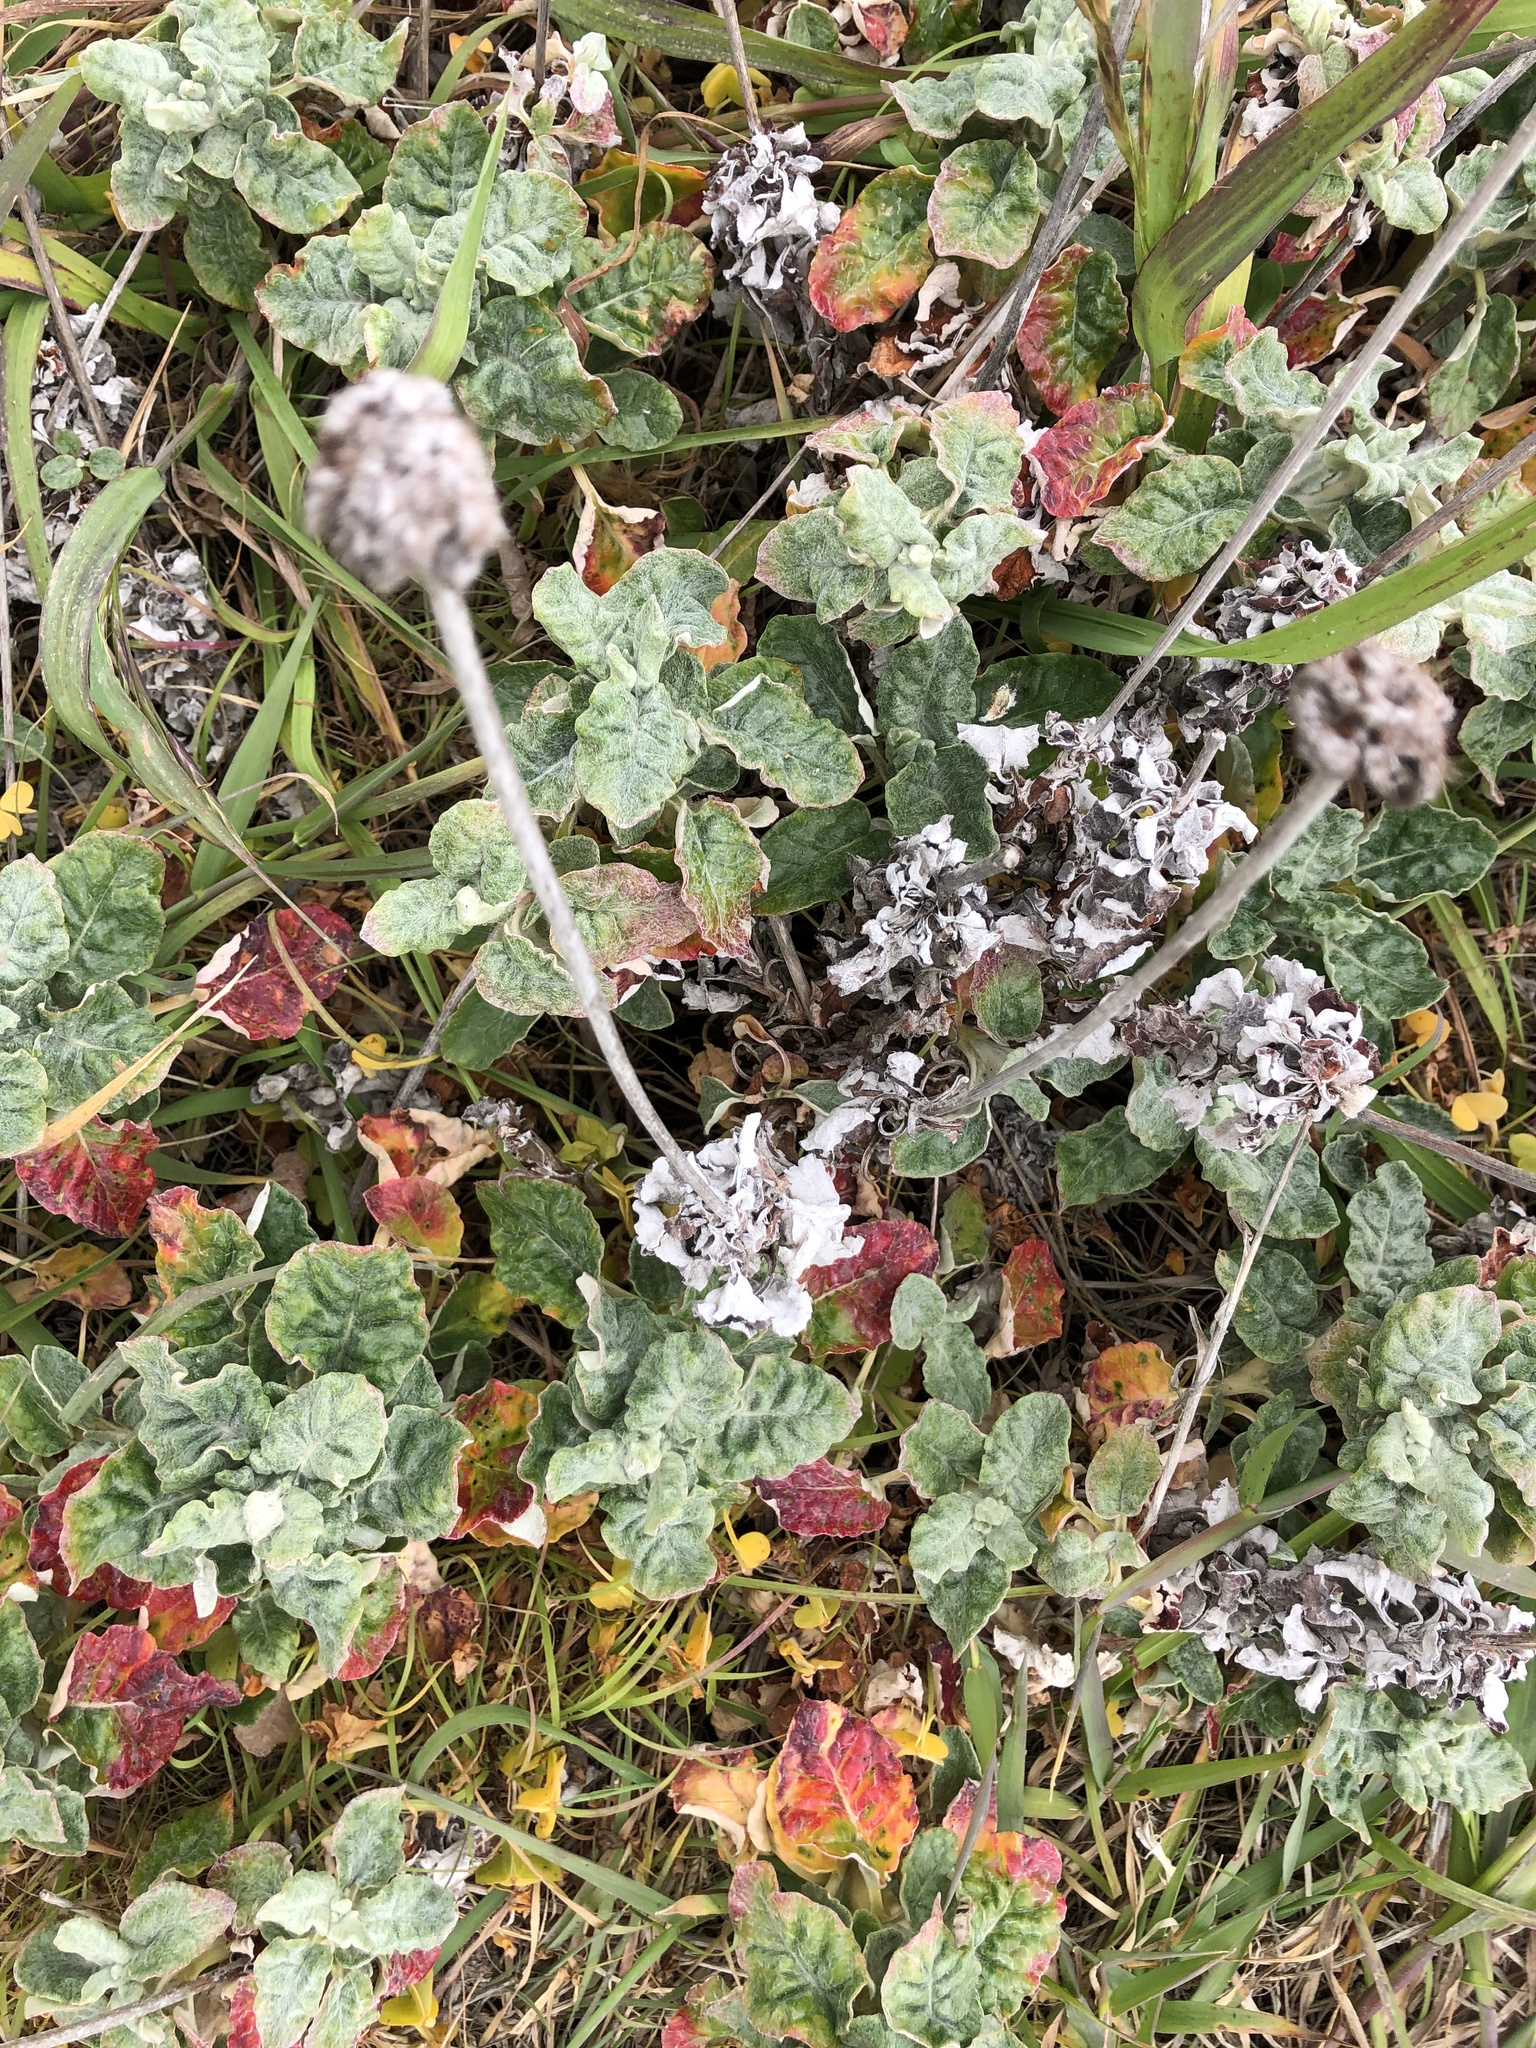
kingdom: Plantae
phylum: Tracheophyta
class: Magnoliopsida
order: Caryophyllales
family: Polygonaceae
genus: Eriogonum
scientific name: Eriogonum latifolium
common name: Seaside wild buckwheat
